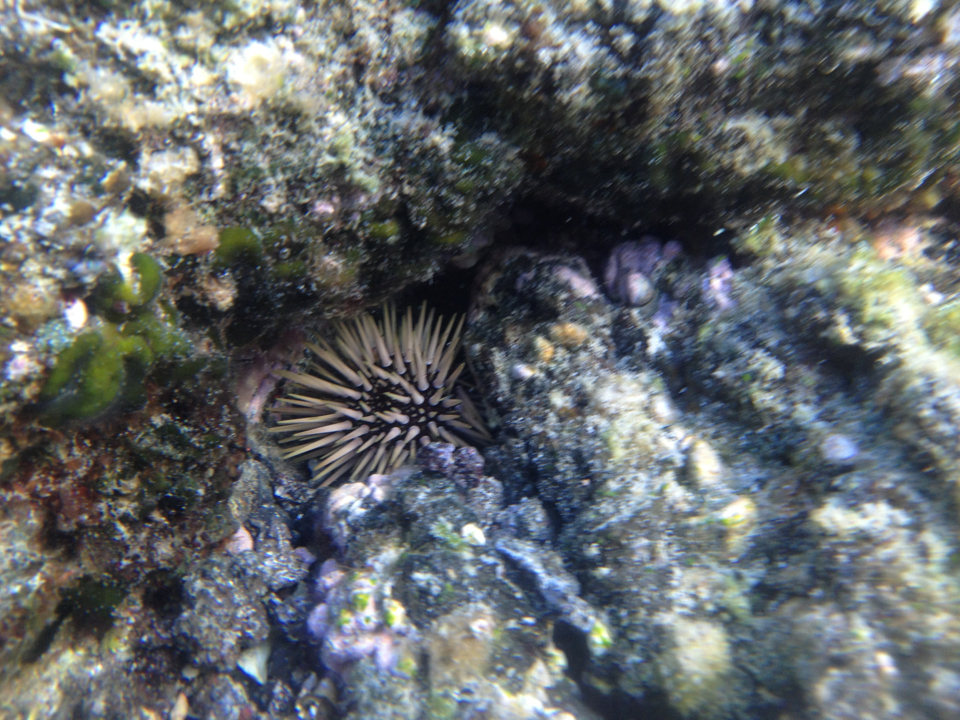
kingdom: Animalia
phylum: Echinodermata
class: Echinoidea
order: Camarodonta
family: Echinometridae
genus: Echinometra
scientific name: Echinometra mathaei
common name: Rock-boring urchin
